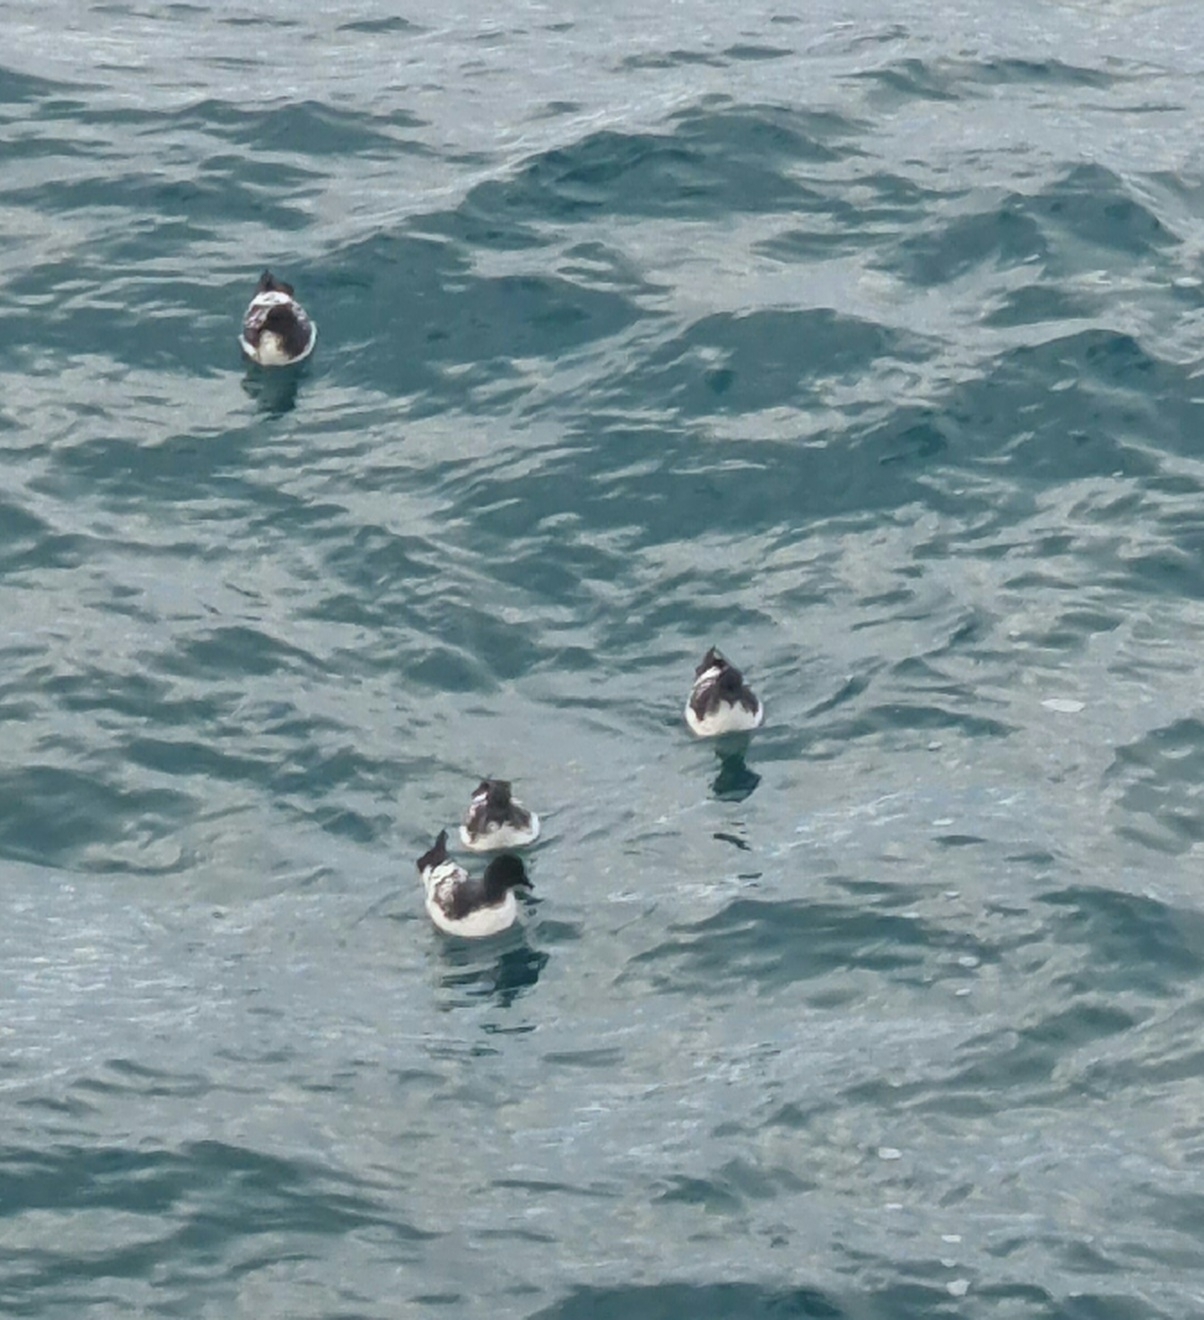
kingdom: Animalia
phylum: Chordata
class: Aves
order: Procellariiformes
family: Procellariidae
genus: Daption
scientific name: Daption capense
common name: Cape petrel
